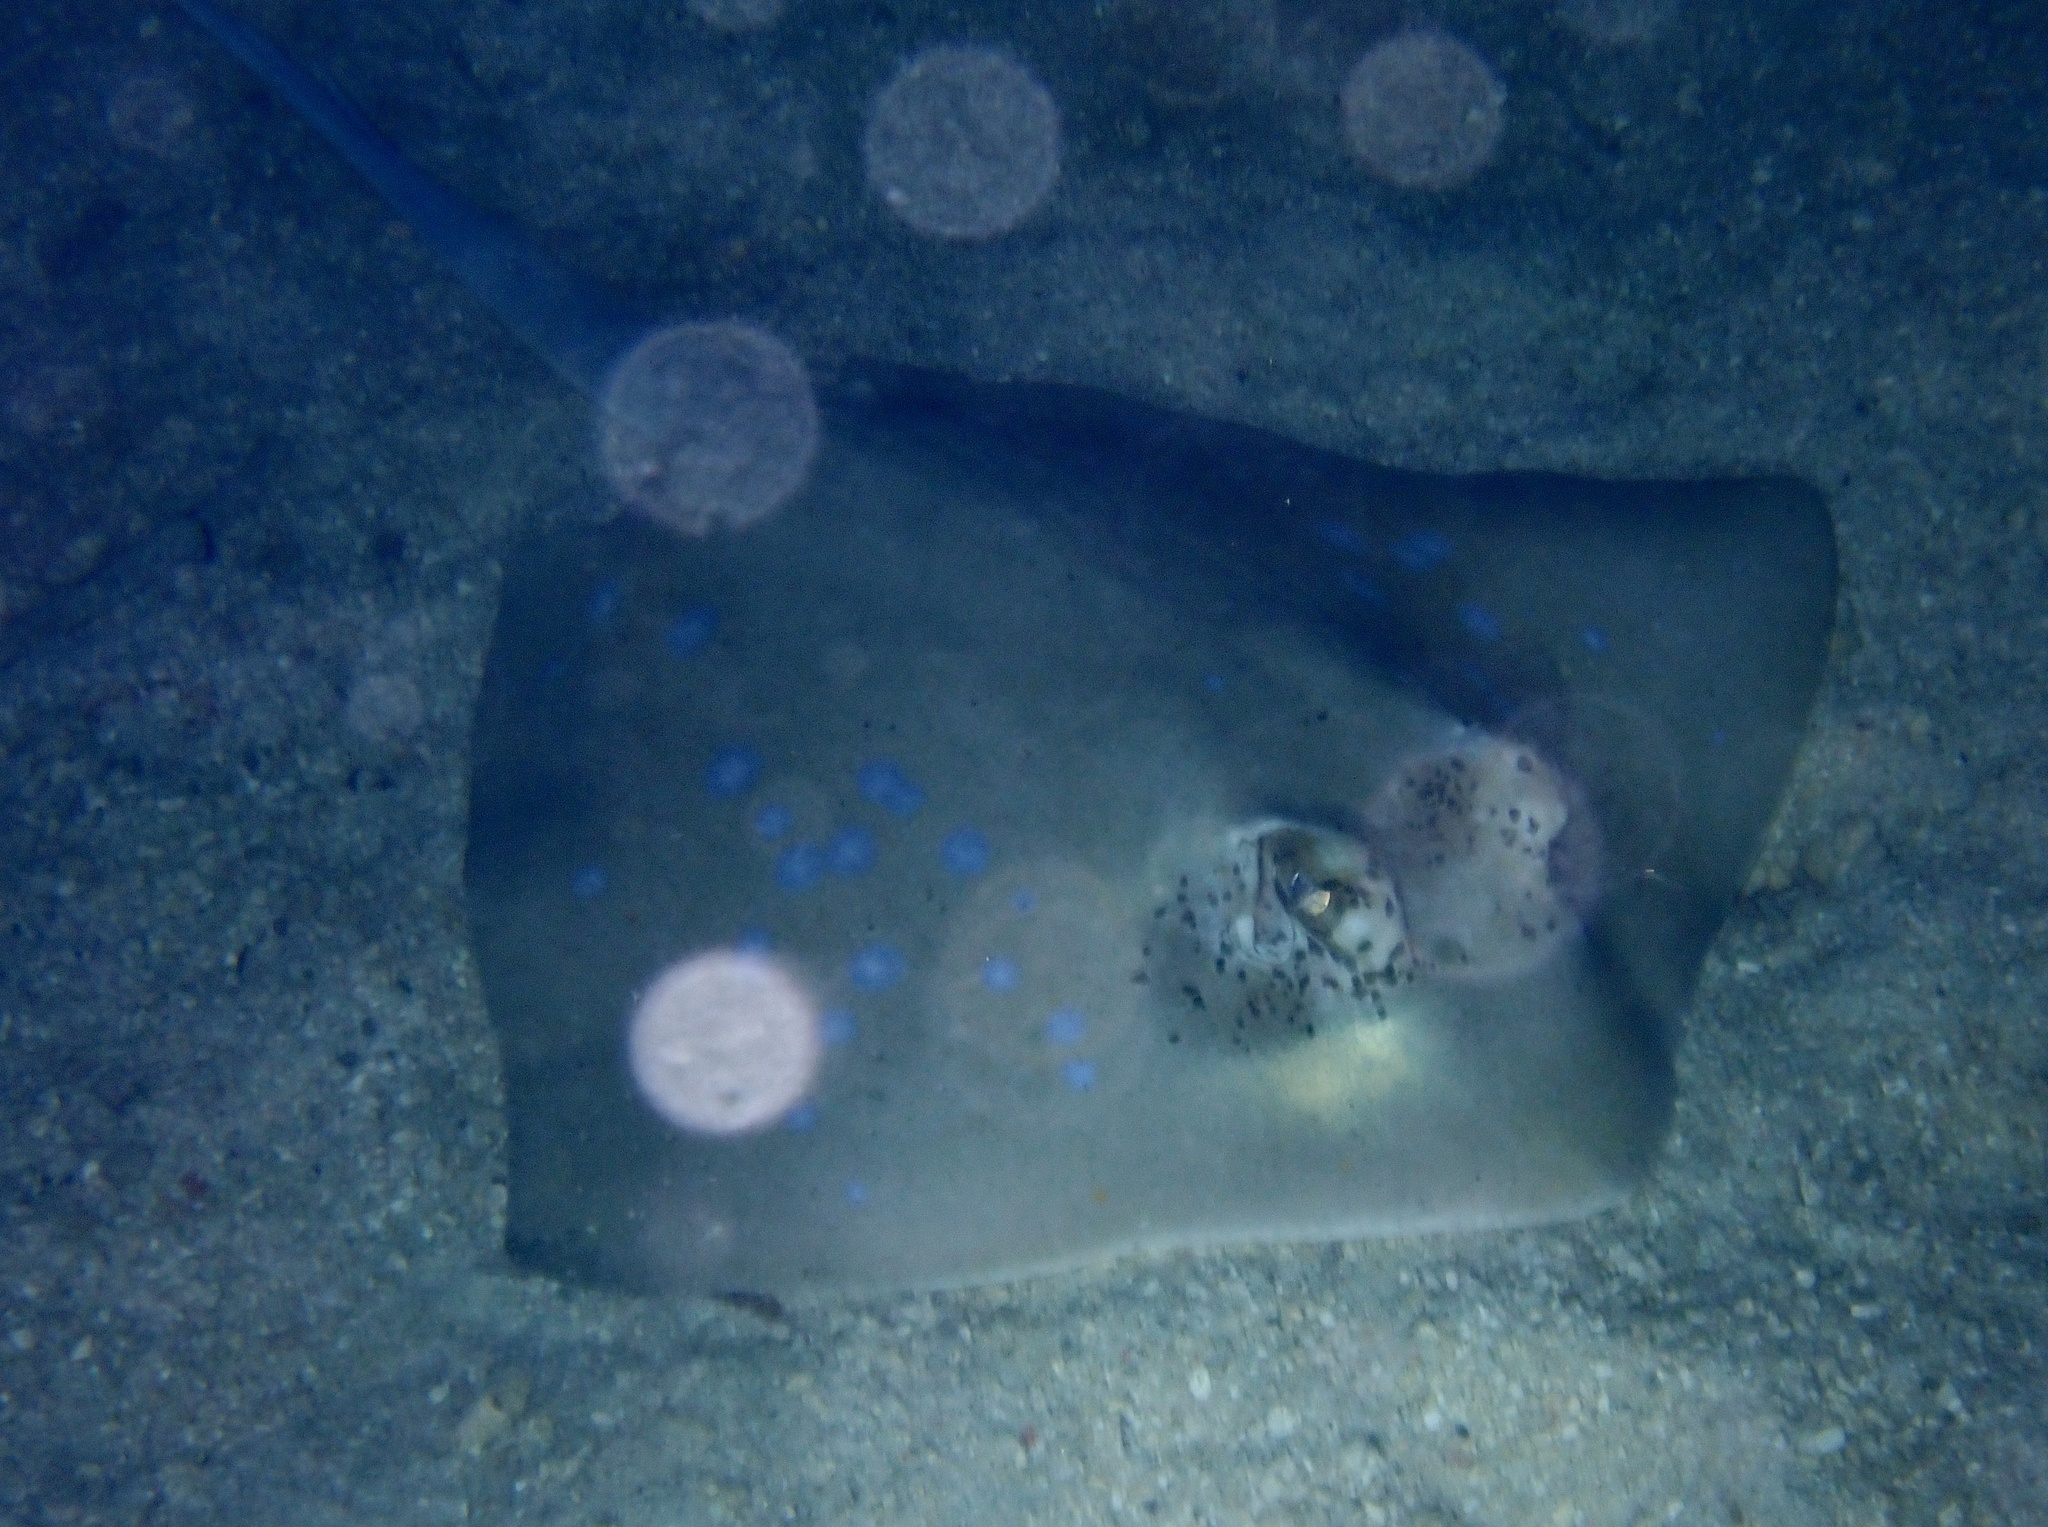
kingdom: Animalia
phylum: Chordata
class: Elasmobranchii
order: Myliobatiformes
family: Dasyatidae
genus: Neotrygon
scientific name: Neotrygon orientale
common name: Oriental bluespotted maskray
